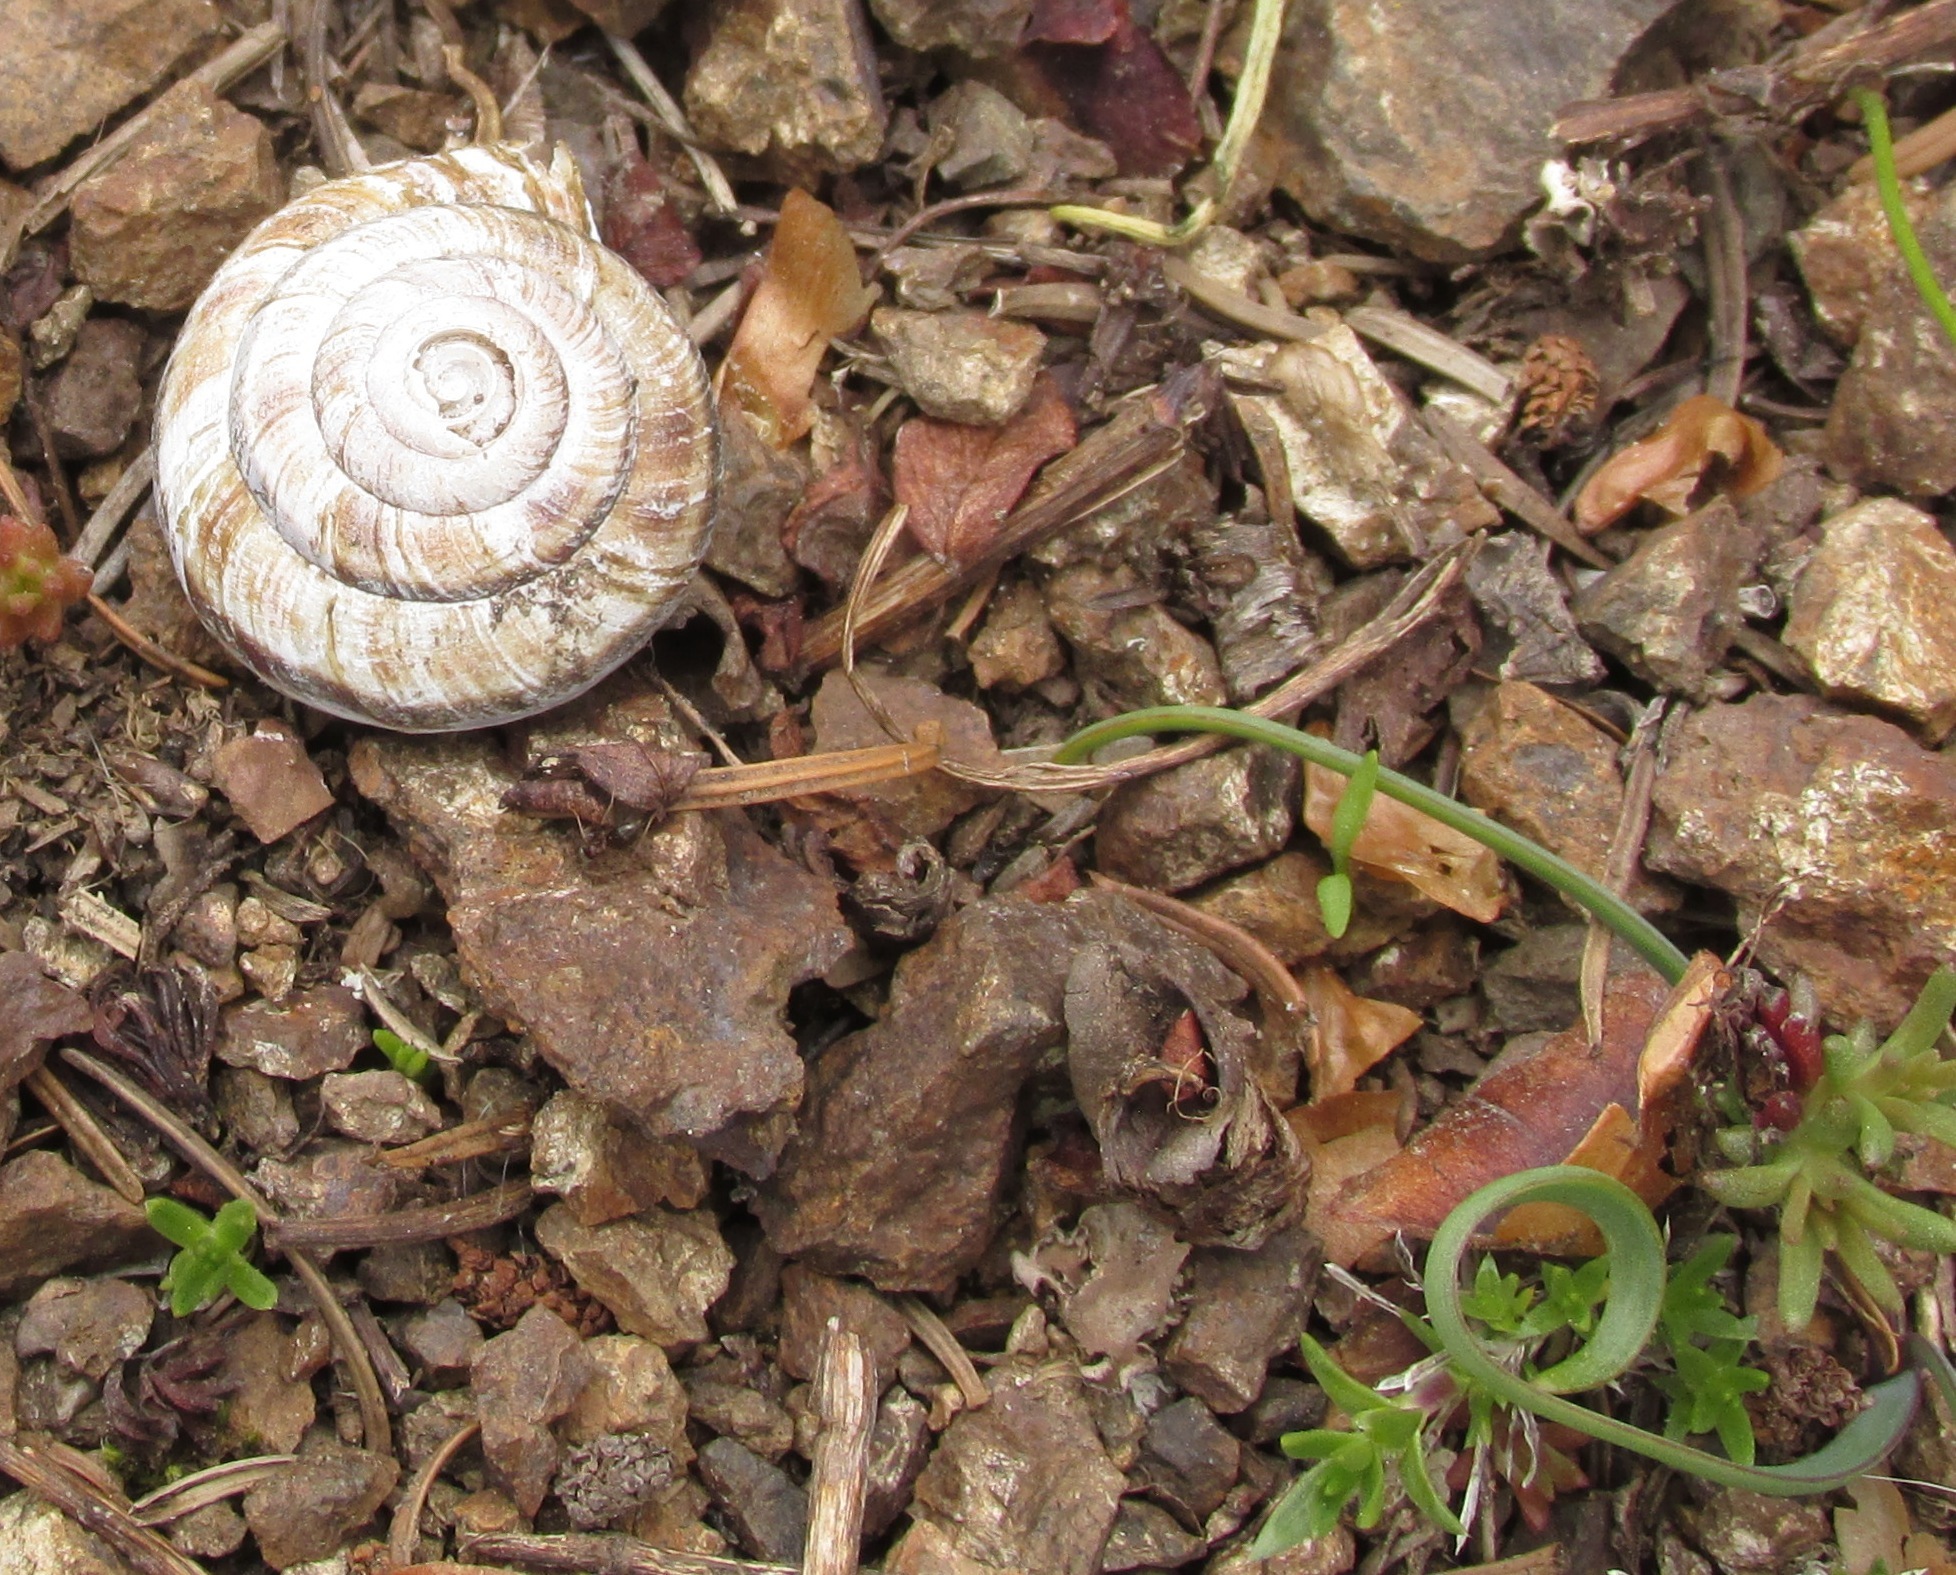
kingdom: Animalia
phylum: Mollusca
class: Gastropoda
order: Stylommatophora
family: Xanthonychidae
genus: Monadenia
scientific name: Monadenia fidelis
